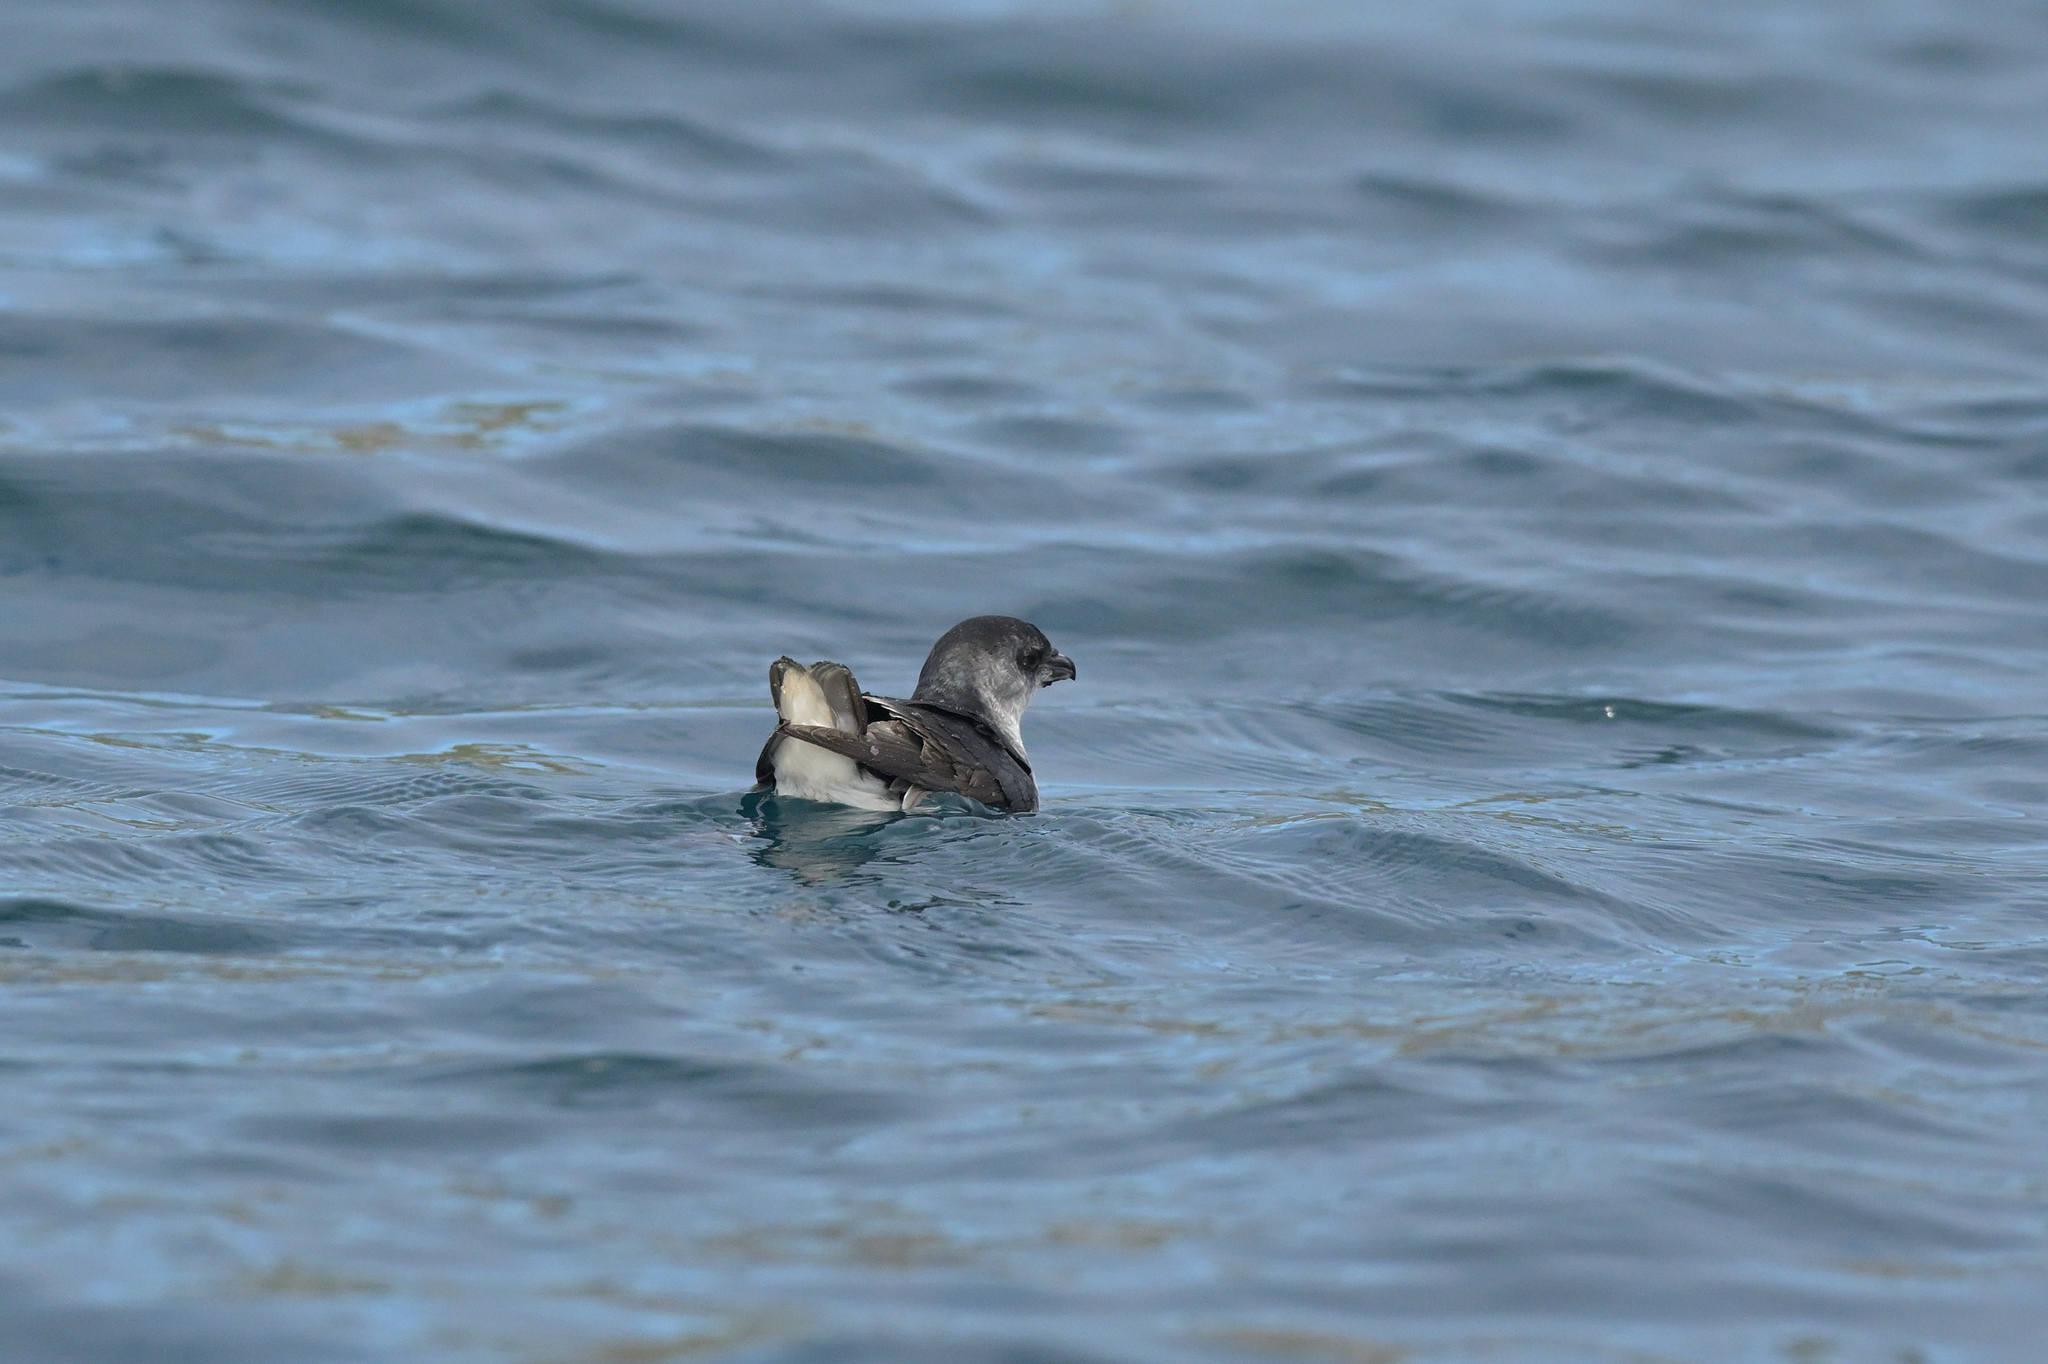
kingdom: Animalia
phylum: Chordata
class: Aves
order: Procellariiformes
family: Pelecanoididae
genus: Pelecanoides
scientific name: Pelecanoides urinatrix
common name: Common diving-petrel
